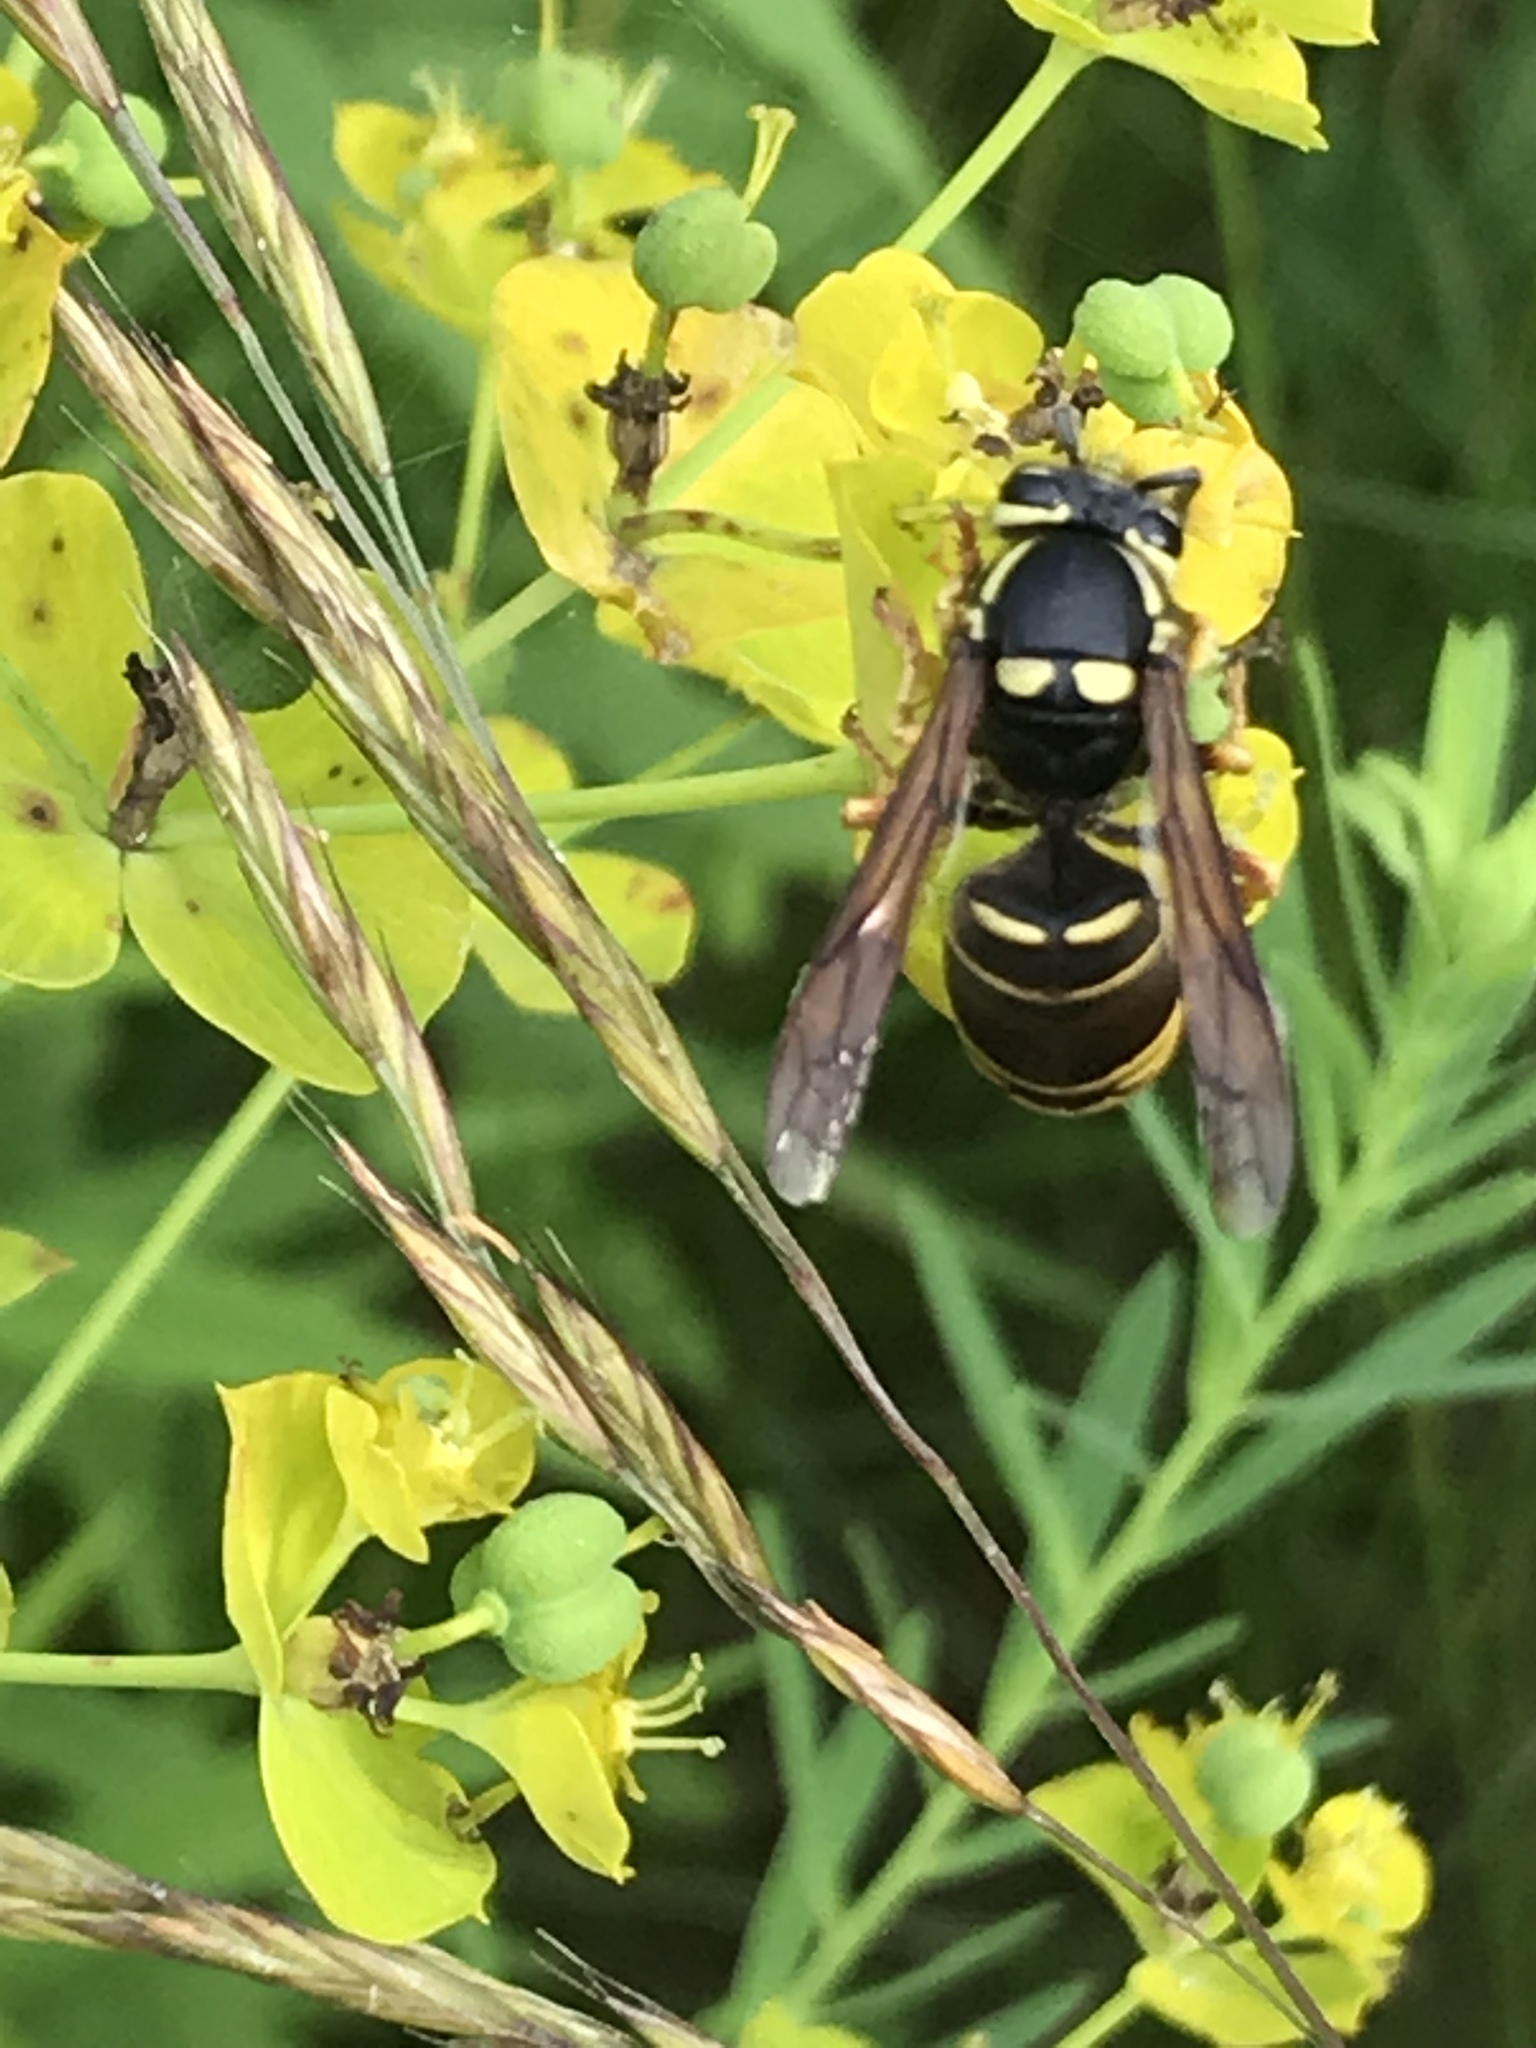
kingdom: Animalia
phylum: Arthropoda
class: Insecta
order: Hymenoptera
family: Vespidae
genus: Vespula
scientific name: Vespula vidua
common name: Widow yellowjacket
